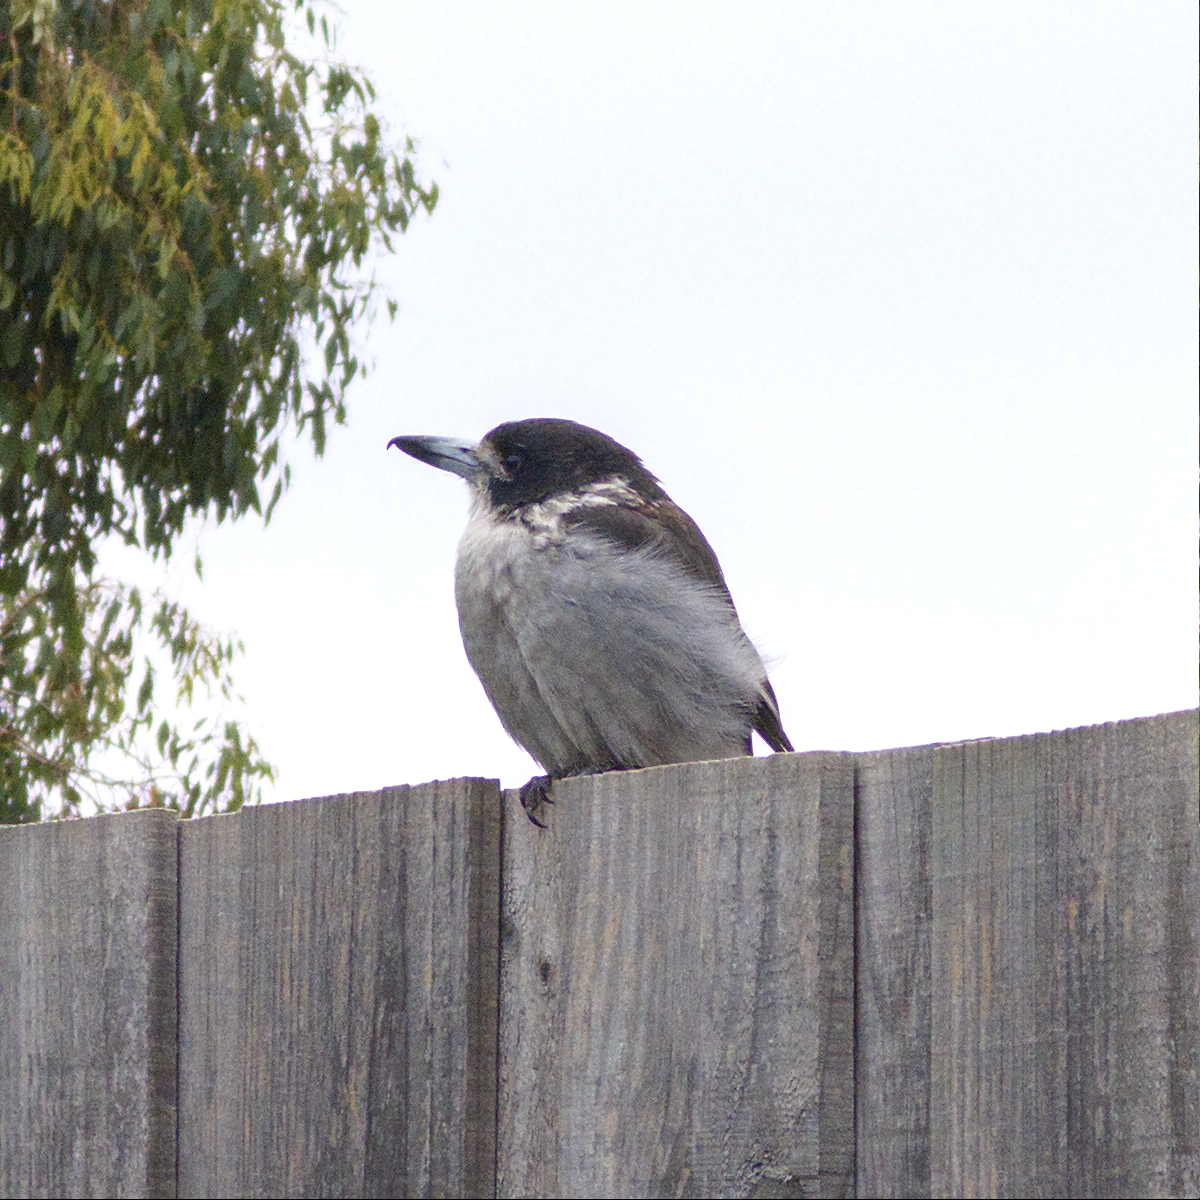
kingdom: Animalia
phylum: Chordata
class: Aves
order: Passeriformes
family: Cracticidae
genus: Cracticus
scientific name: Cracticus torquatus
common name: Grey butcherbird
